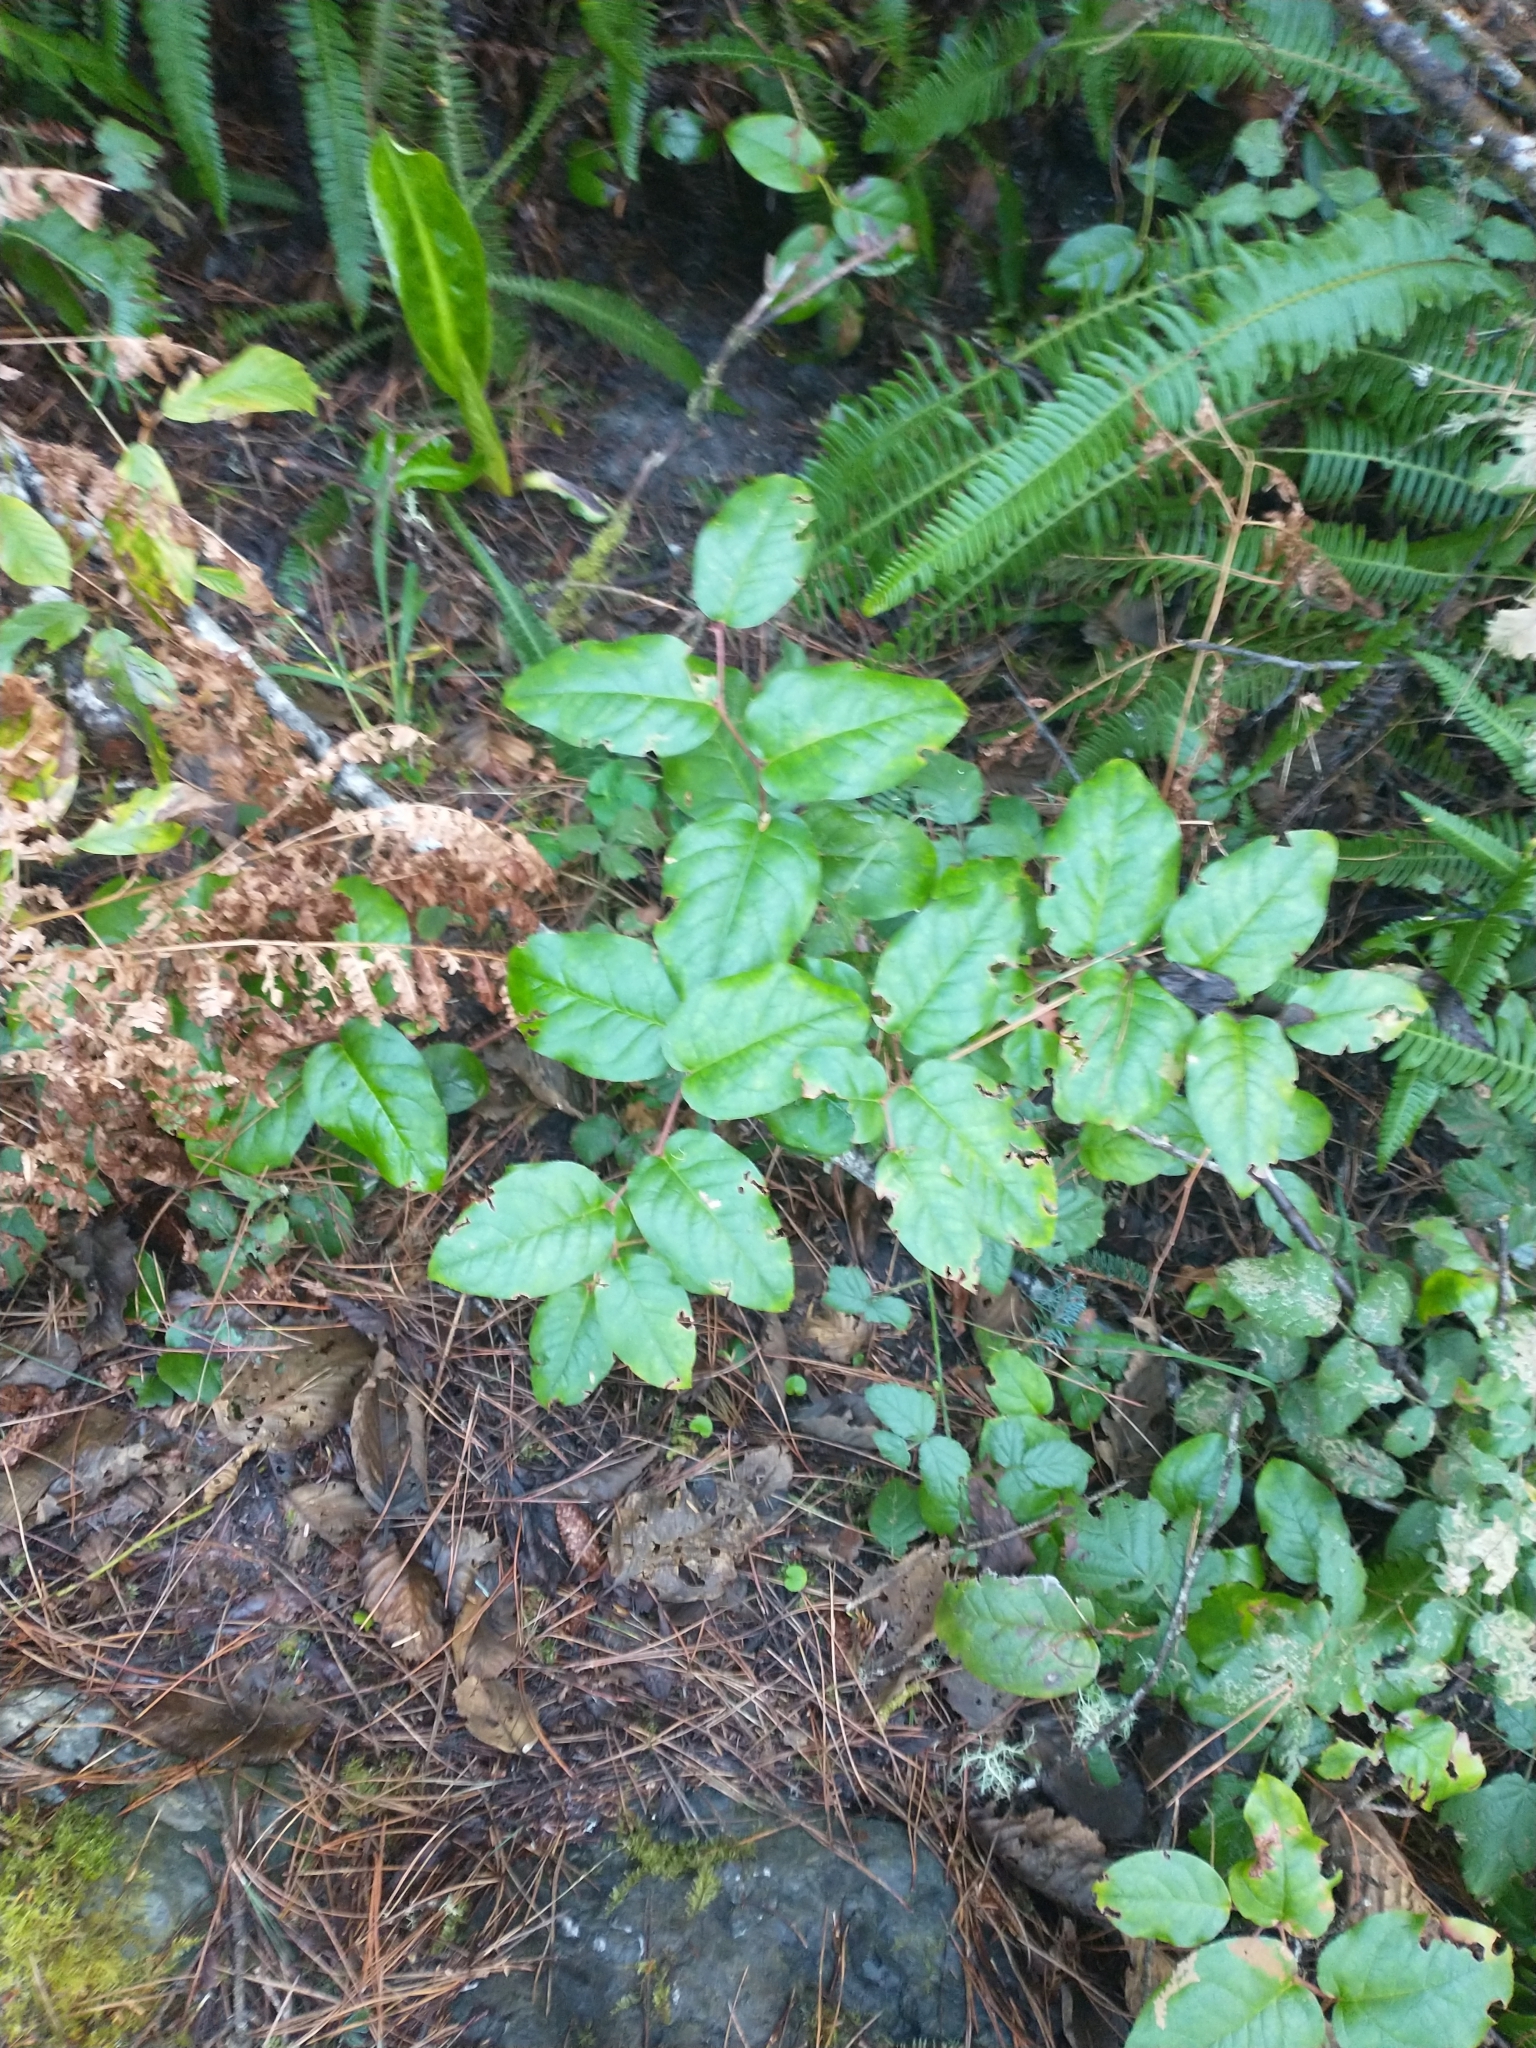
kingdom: Plantae
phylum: Tracheophyta
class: Magnoliopsida
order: Ericales
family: Ericaceae
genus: Gaultheria
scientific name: Gaultheria shallon
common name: Shallon
